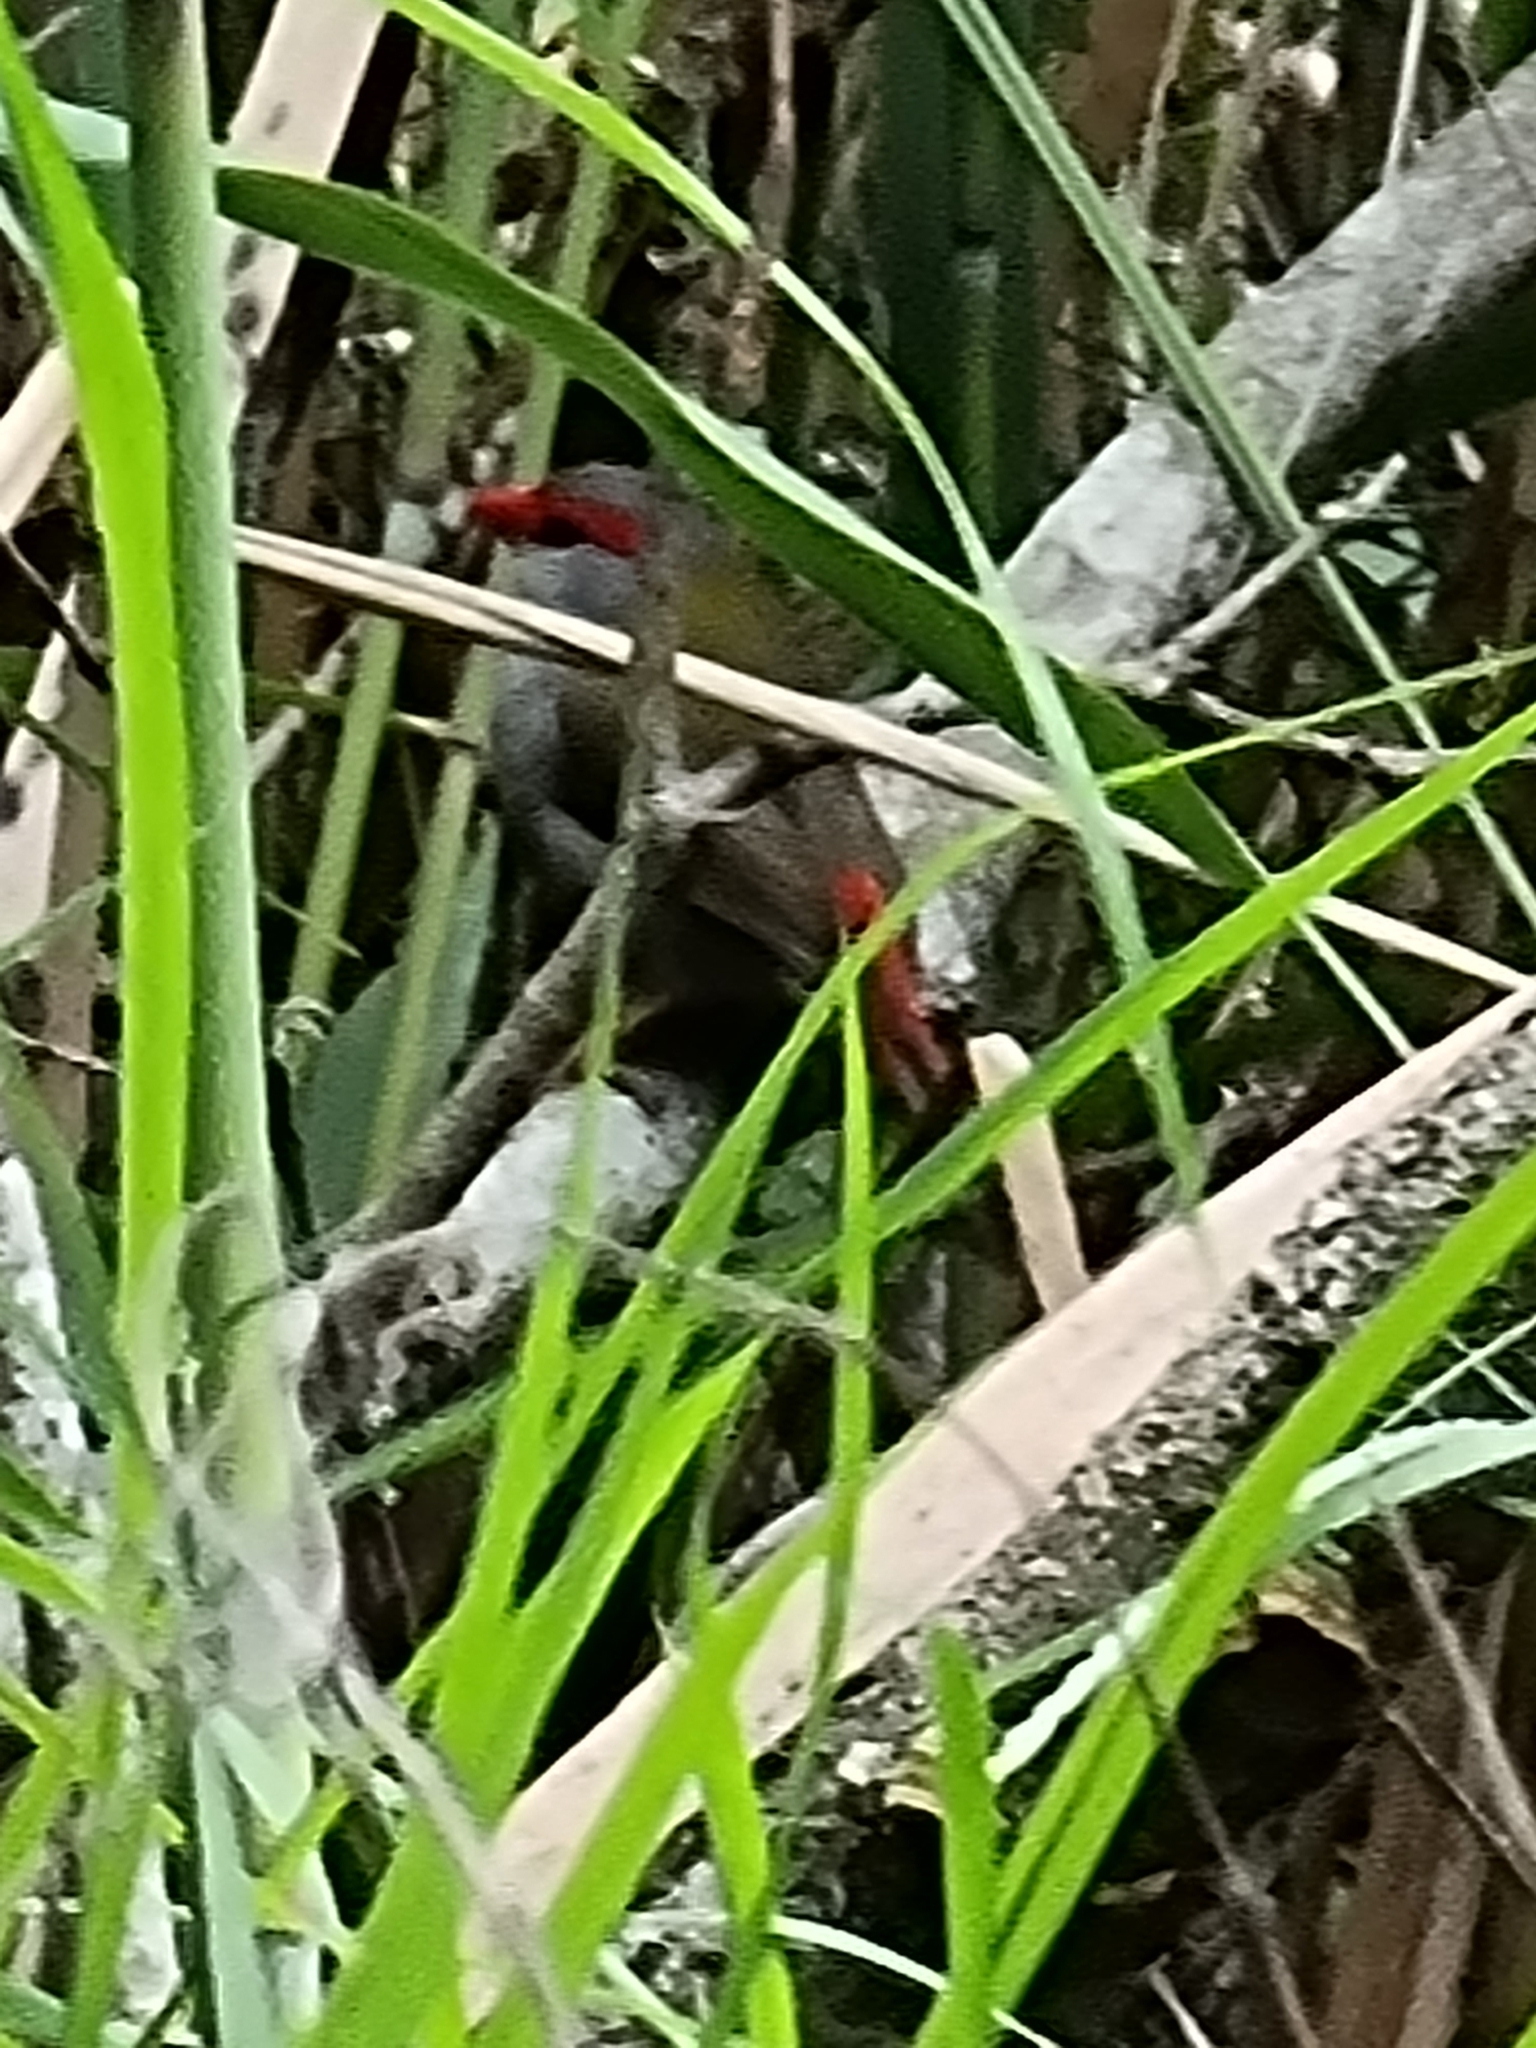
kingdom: Animalia
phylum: Chordata
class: Aves
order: Passeriformes
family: Estrildidae
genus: Neochmia
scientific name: Neochmia temporalis
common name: Red-browed finch
